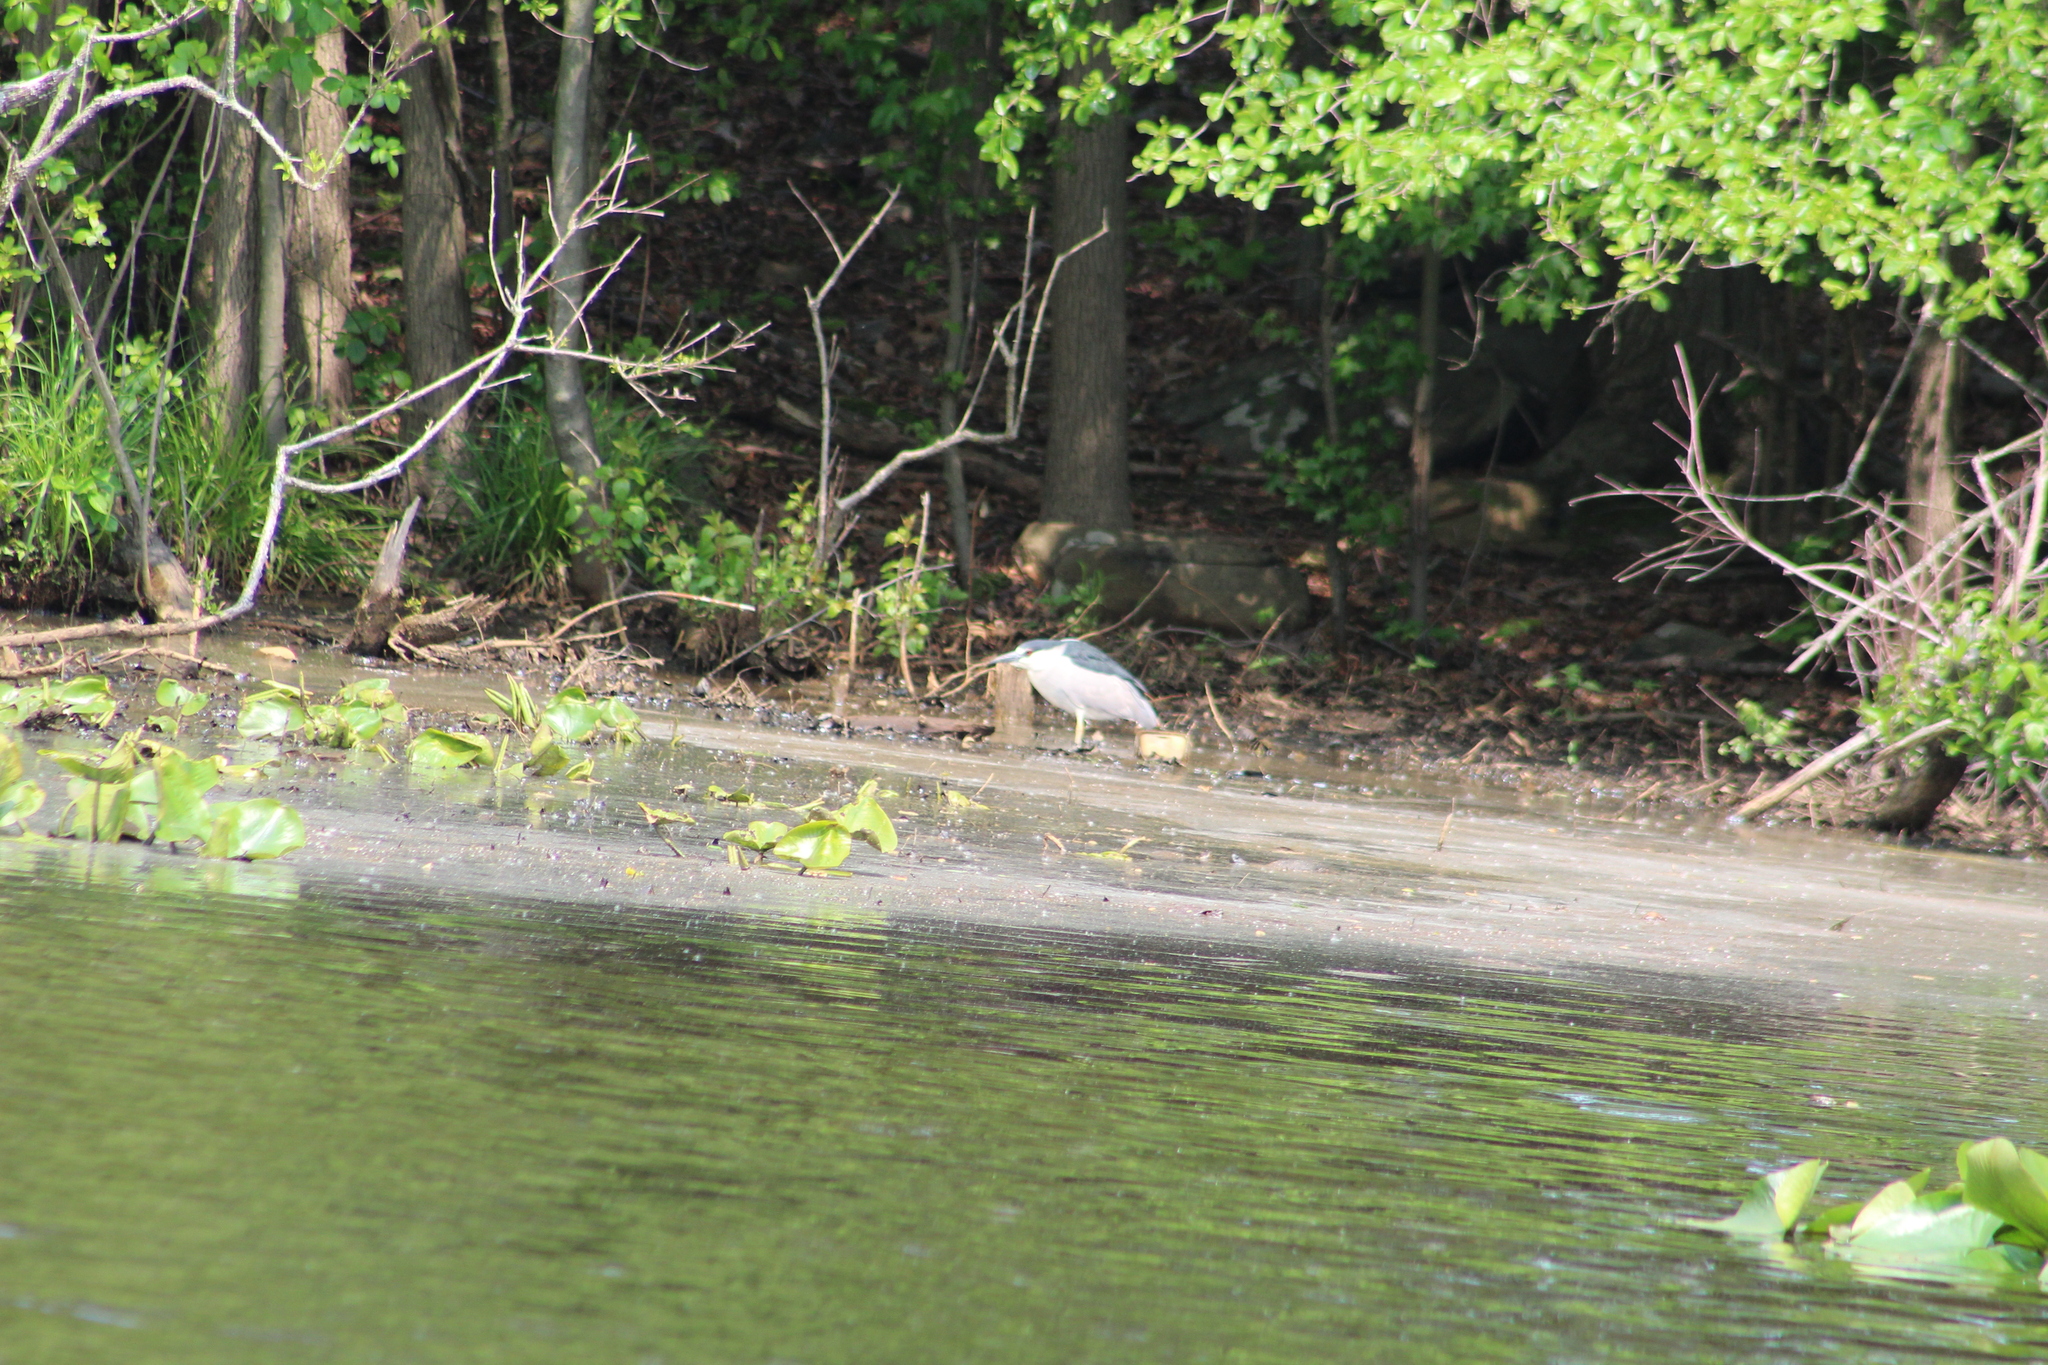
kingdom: Animalia
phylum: Chordata
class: Aves
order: Pelecaniformes
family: Ardeidae
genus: Nycticorax
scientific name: Nycticorax nycticorax
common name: Black-crowned night heron
